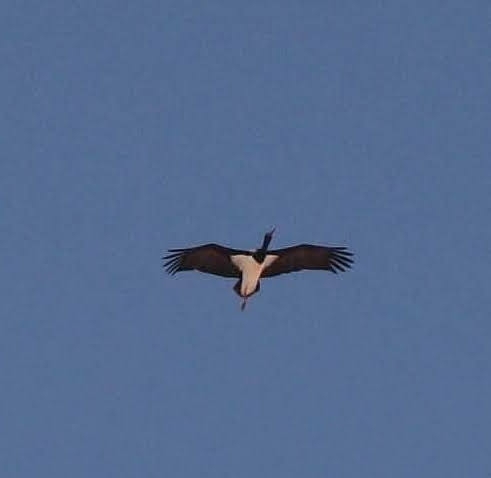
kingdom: Animalia
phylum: Chordata
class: Aves
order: Ciconiiformes
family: Ciconiidae
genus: Ciconia
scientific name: Ciconia nigra
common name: Black stork
